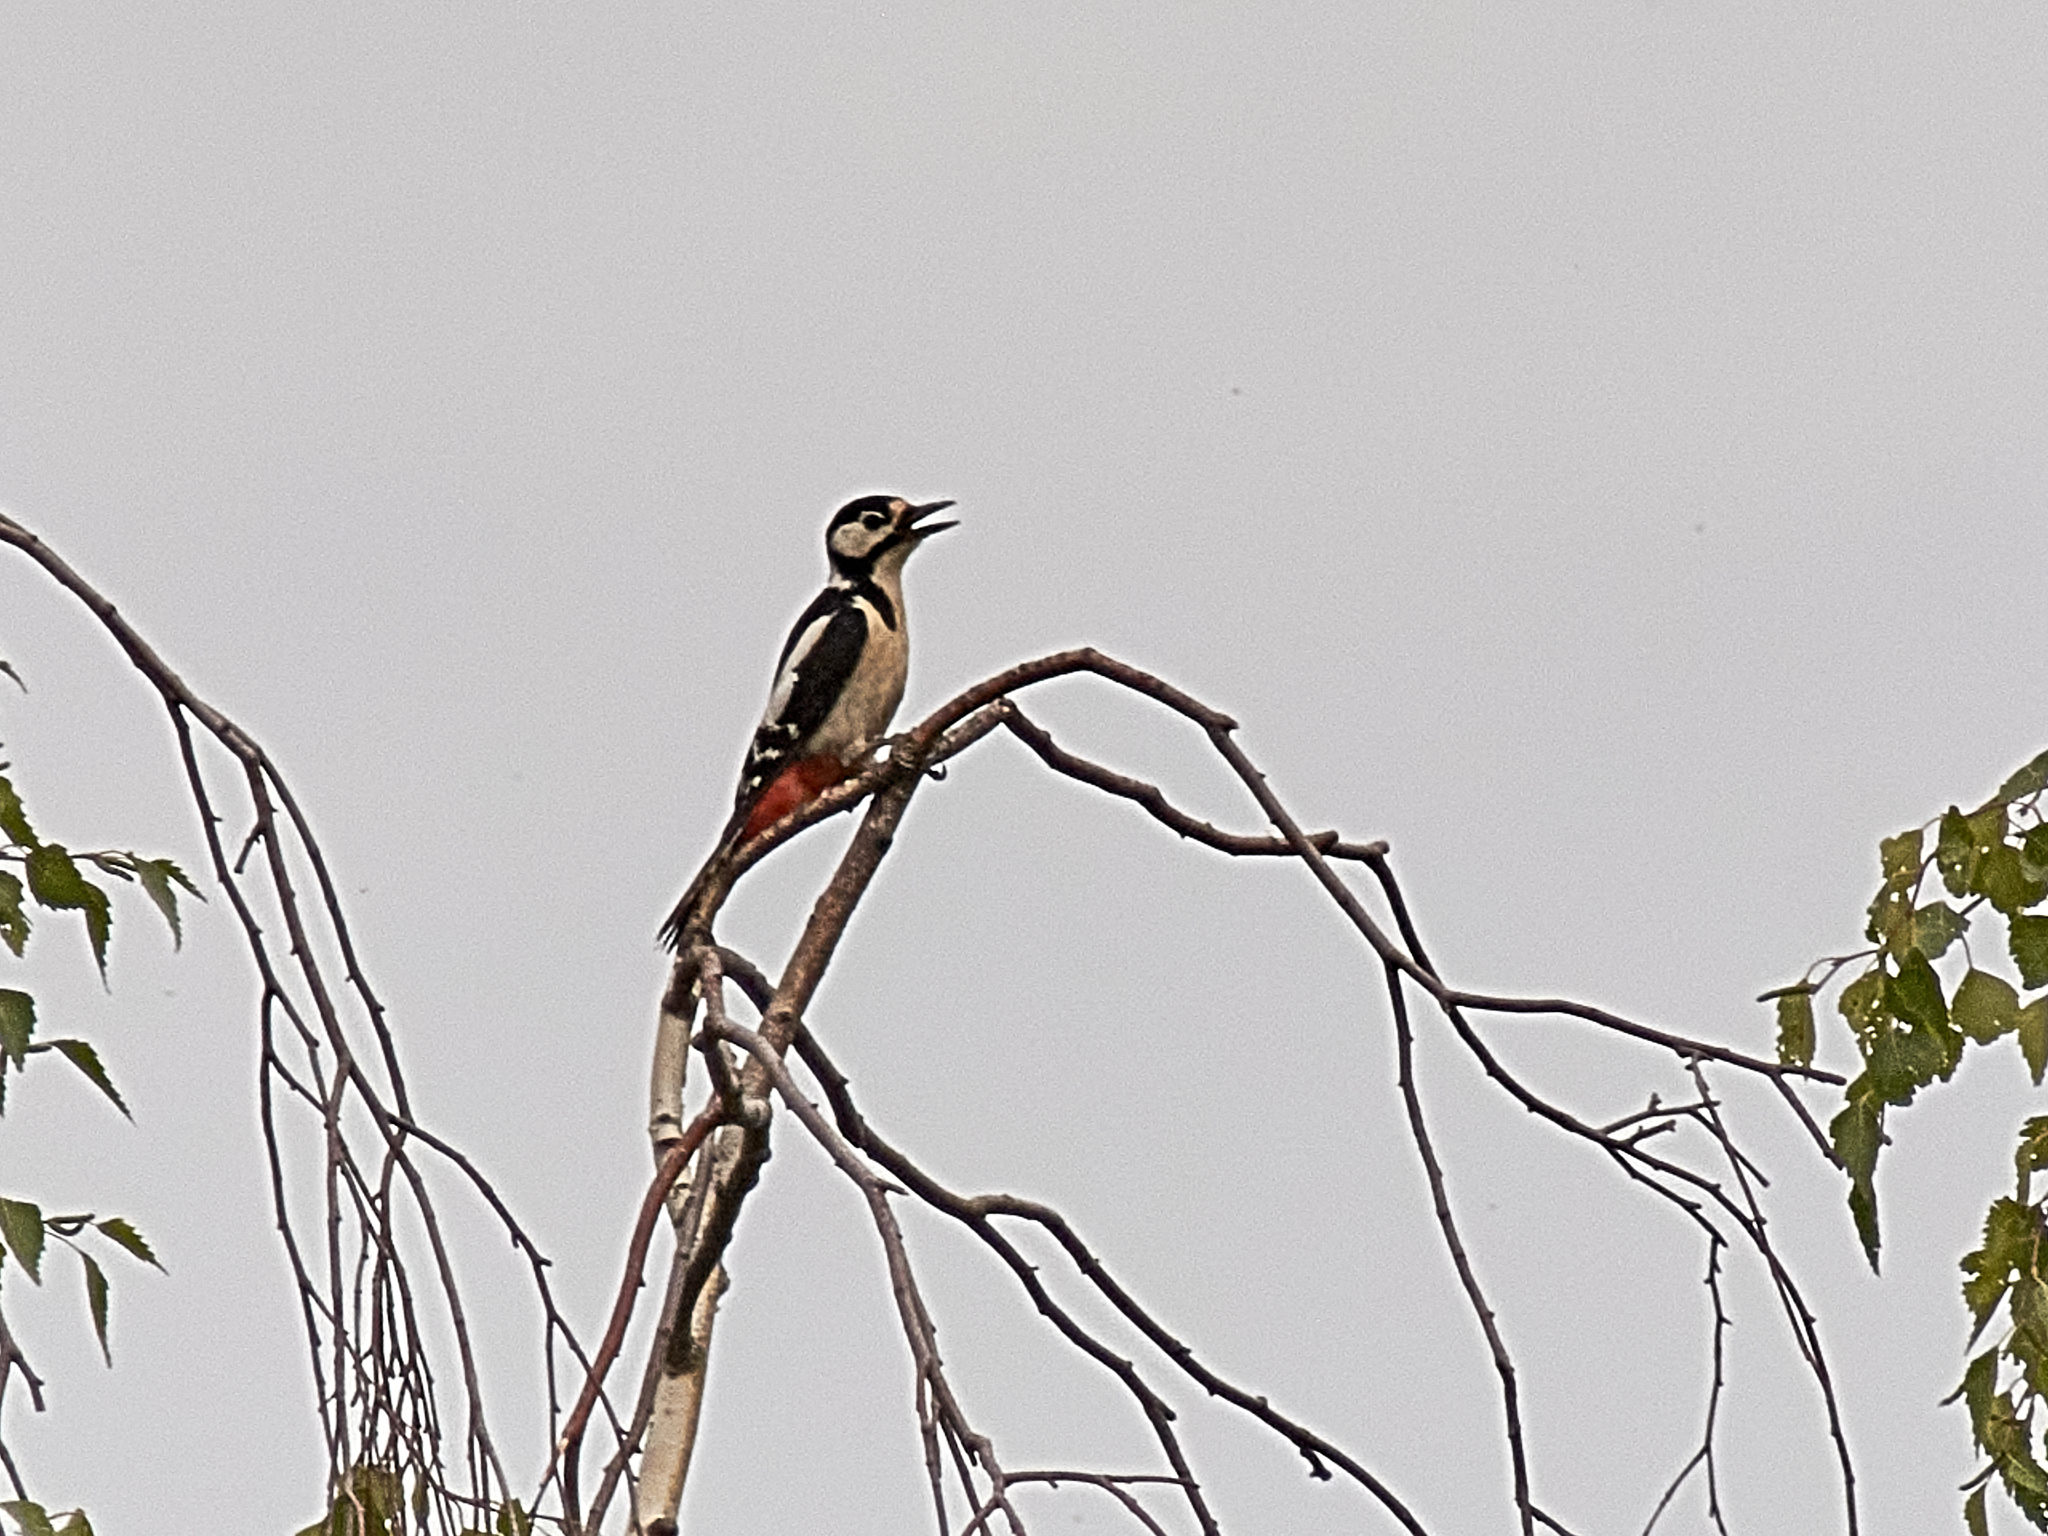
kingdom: Animalia
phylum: Chordata
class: Aves
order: Piciformes
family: Picidae
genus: Dendrocopos
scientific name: Dendrocopos major
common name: Great spotted woodpecker
